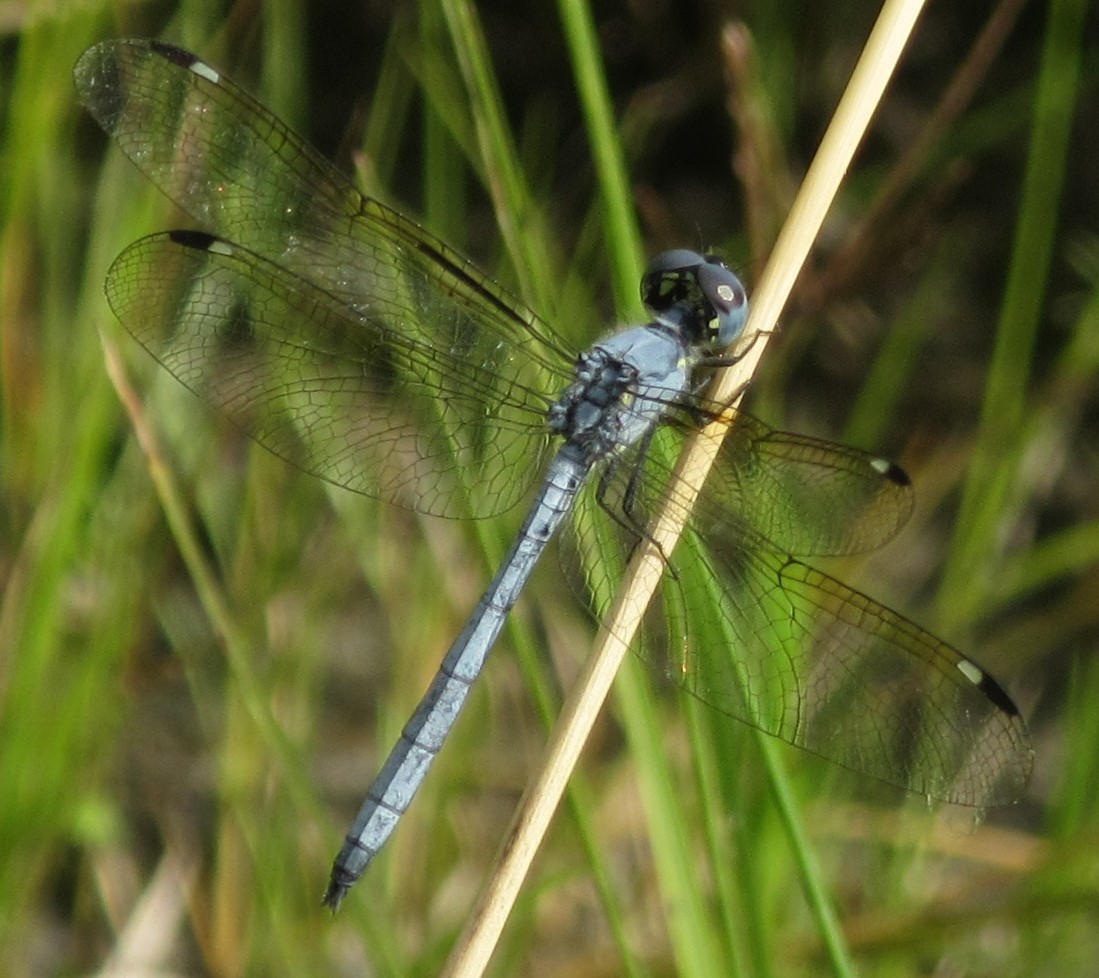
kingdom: Animalia
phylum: Arthropoda
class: Insecta
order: Odonata
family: Libellulidae
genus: Hemistigma
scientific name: Hemistigma albipunctum
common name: African pied-spot
